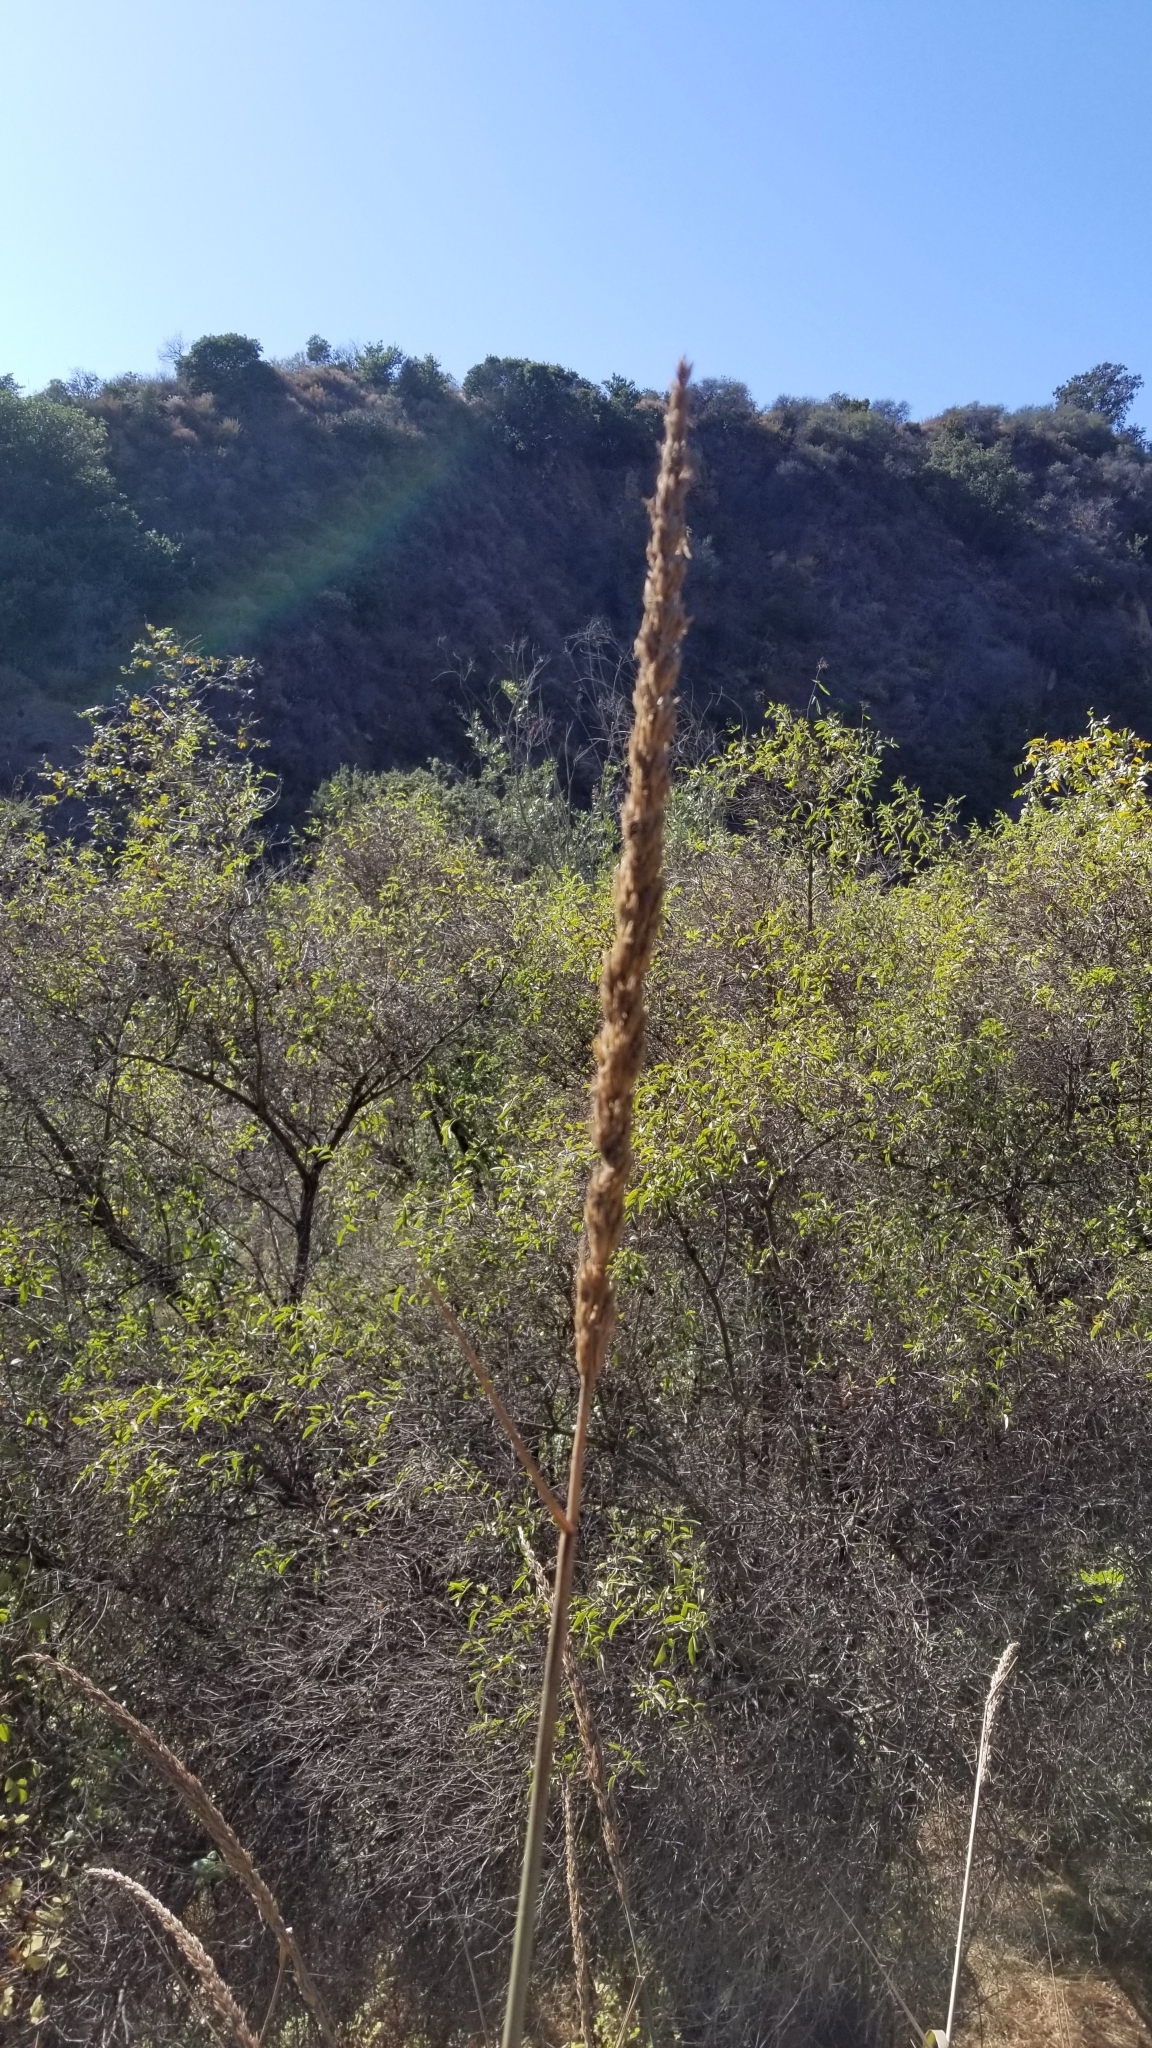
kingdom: Plantae
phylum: Tracheophyta
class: Liliopsida
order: Poales
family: Poaceae
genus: Leymus
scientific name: Leymus condensatus
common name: Giant wild rye
